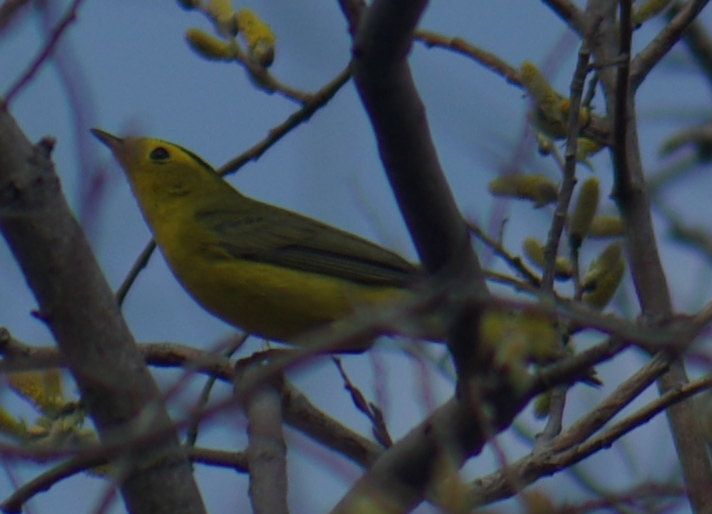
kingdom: Animalia
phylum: Chordata
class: Aves
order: Passeriformes
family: Parulidae
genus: Cardellina
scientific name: Cardellina pusilla
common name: Wilson's warbler
